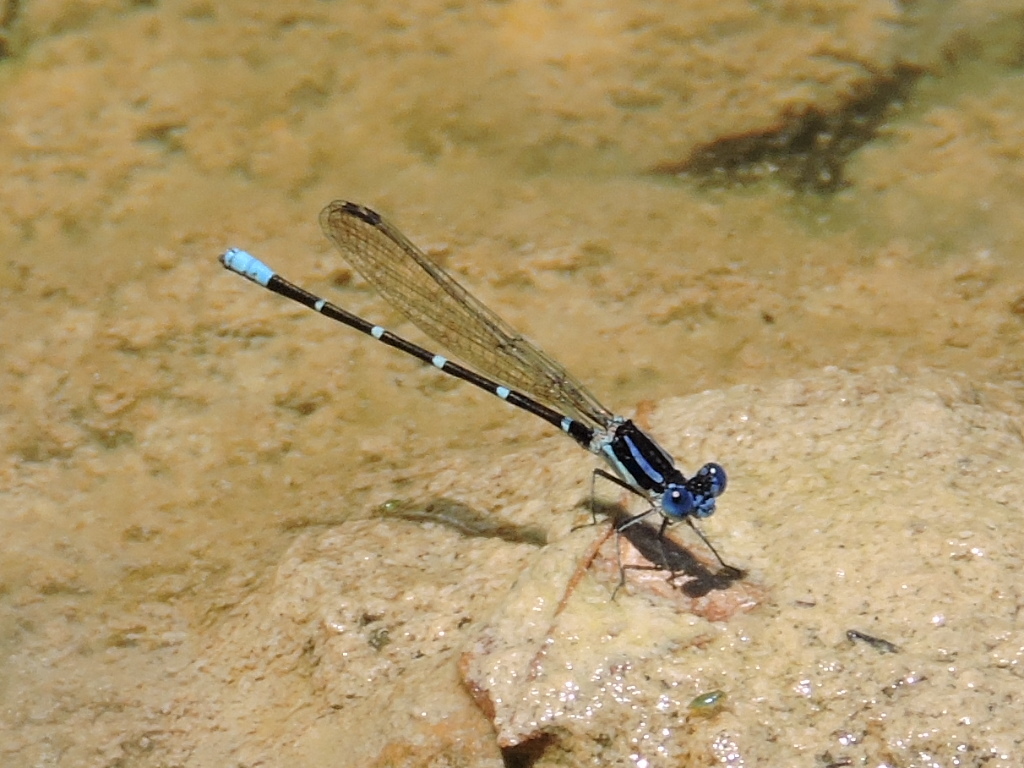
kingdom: Animalia
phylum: Arthropoda
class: Insecta
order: Odonata
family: Coenagrionidae
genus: Argia
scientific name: Argia sedula
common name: Blue-ringed dancer
